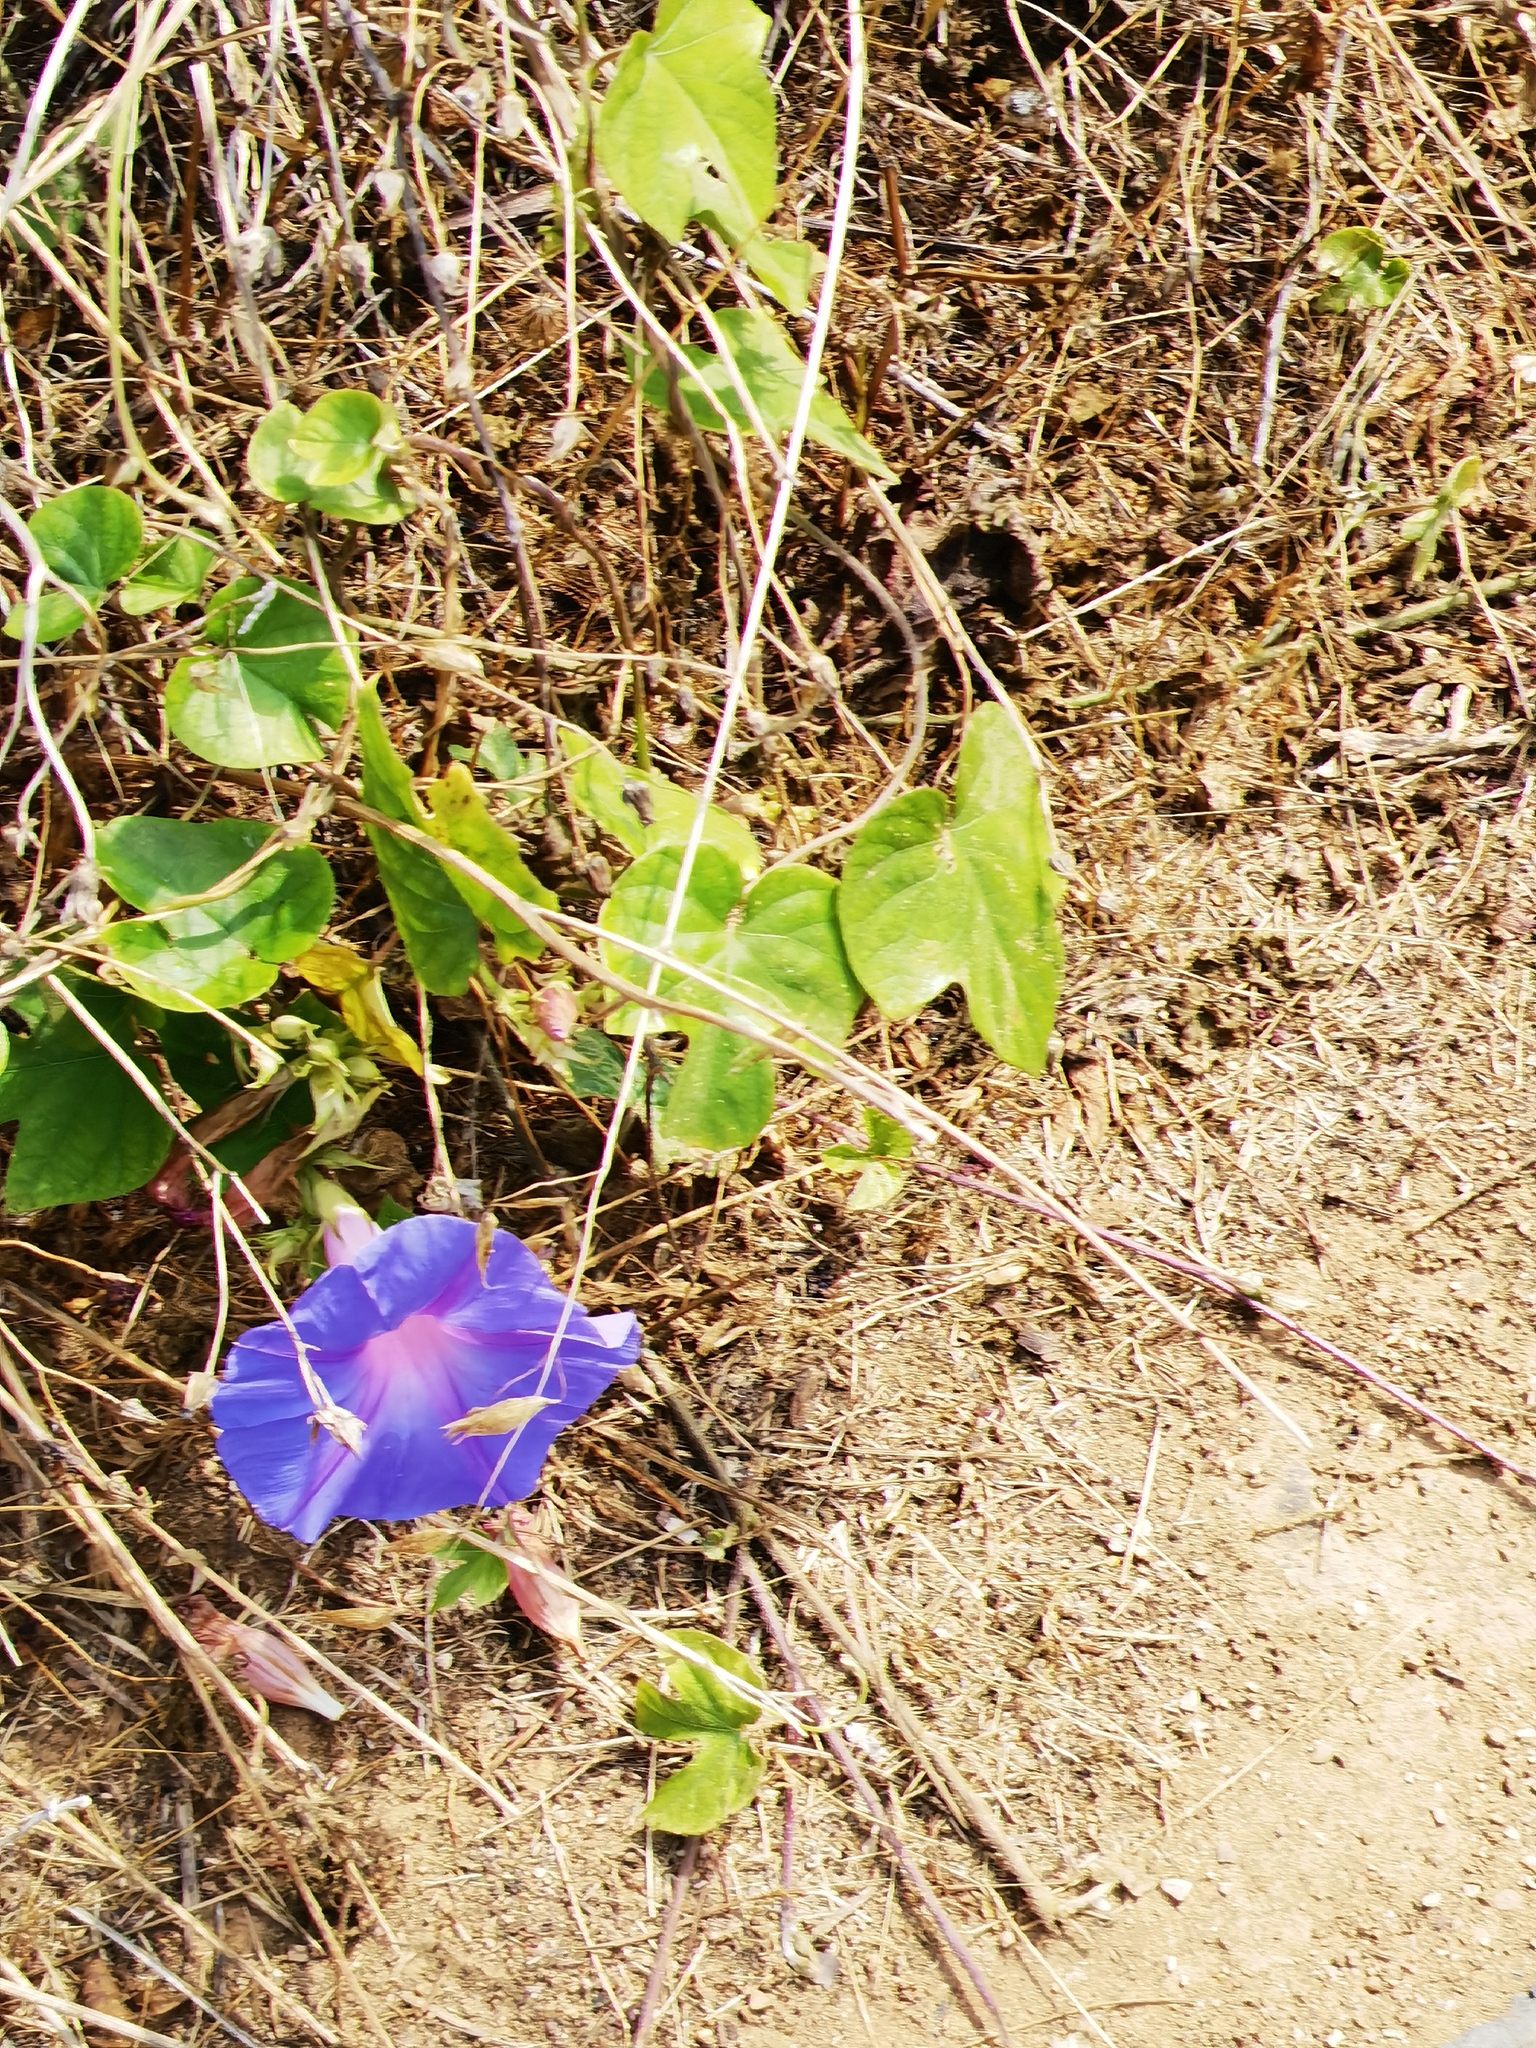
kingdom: Plantae
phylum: Tracheophyta
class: Magnoliopsida
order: Solanales
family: Convolvulaceae
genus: Ipomoea
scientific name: Ipomoea indica
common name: Blue dawnflower
